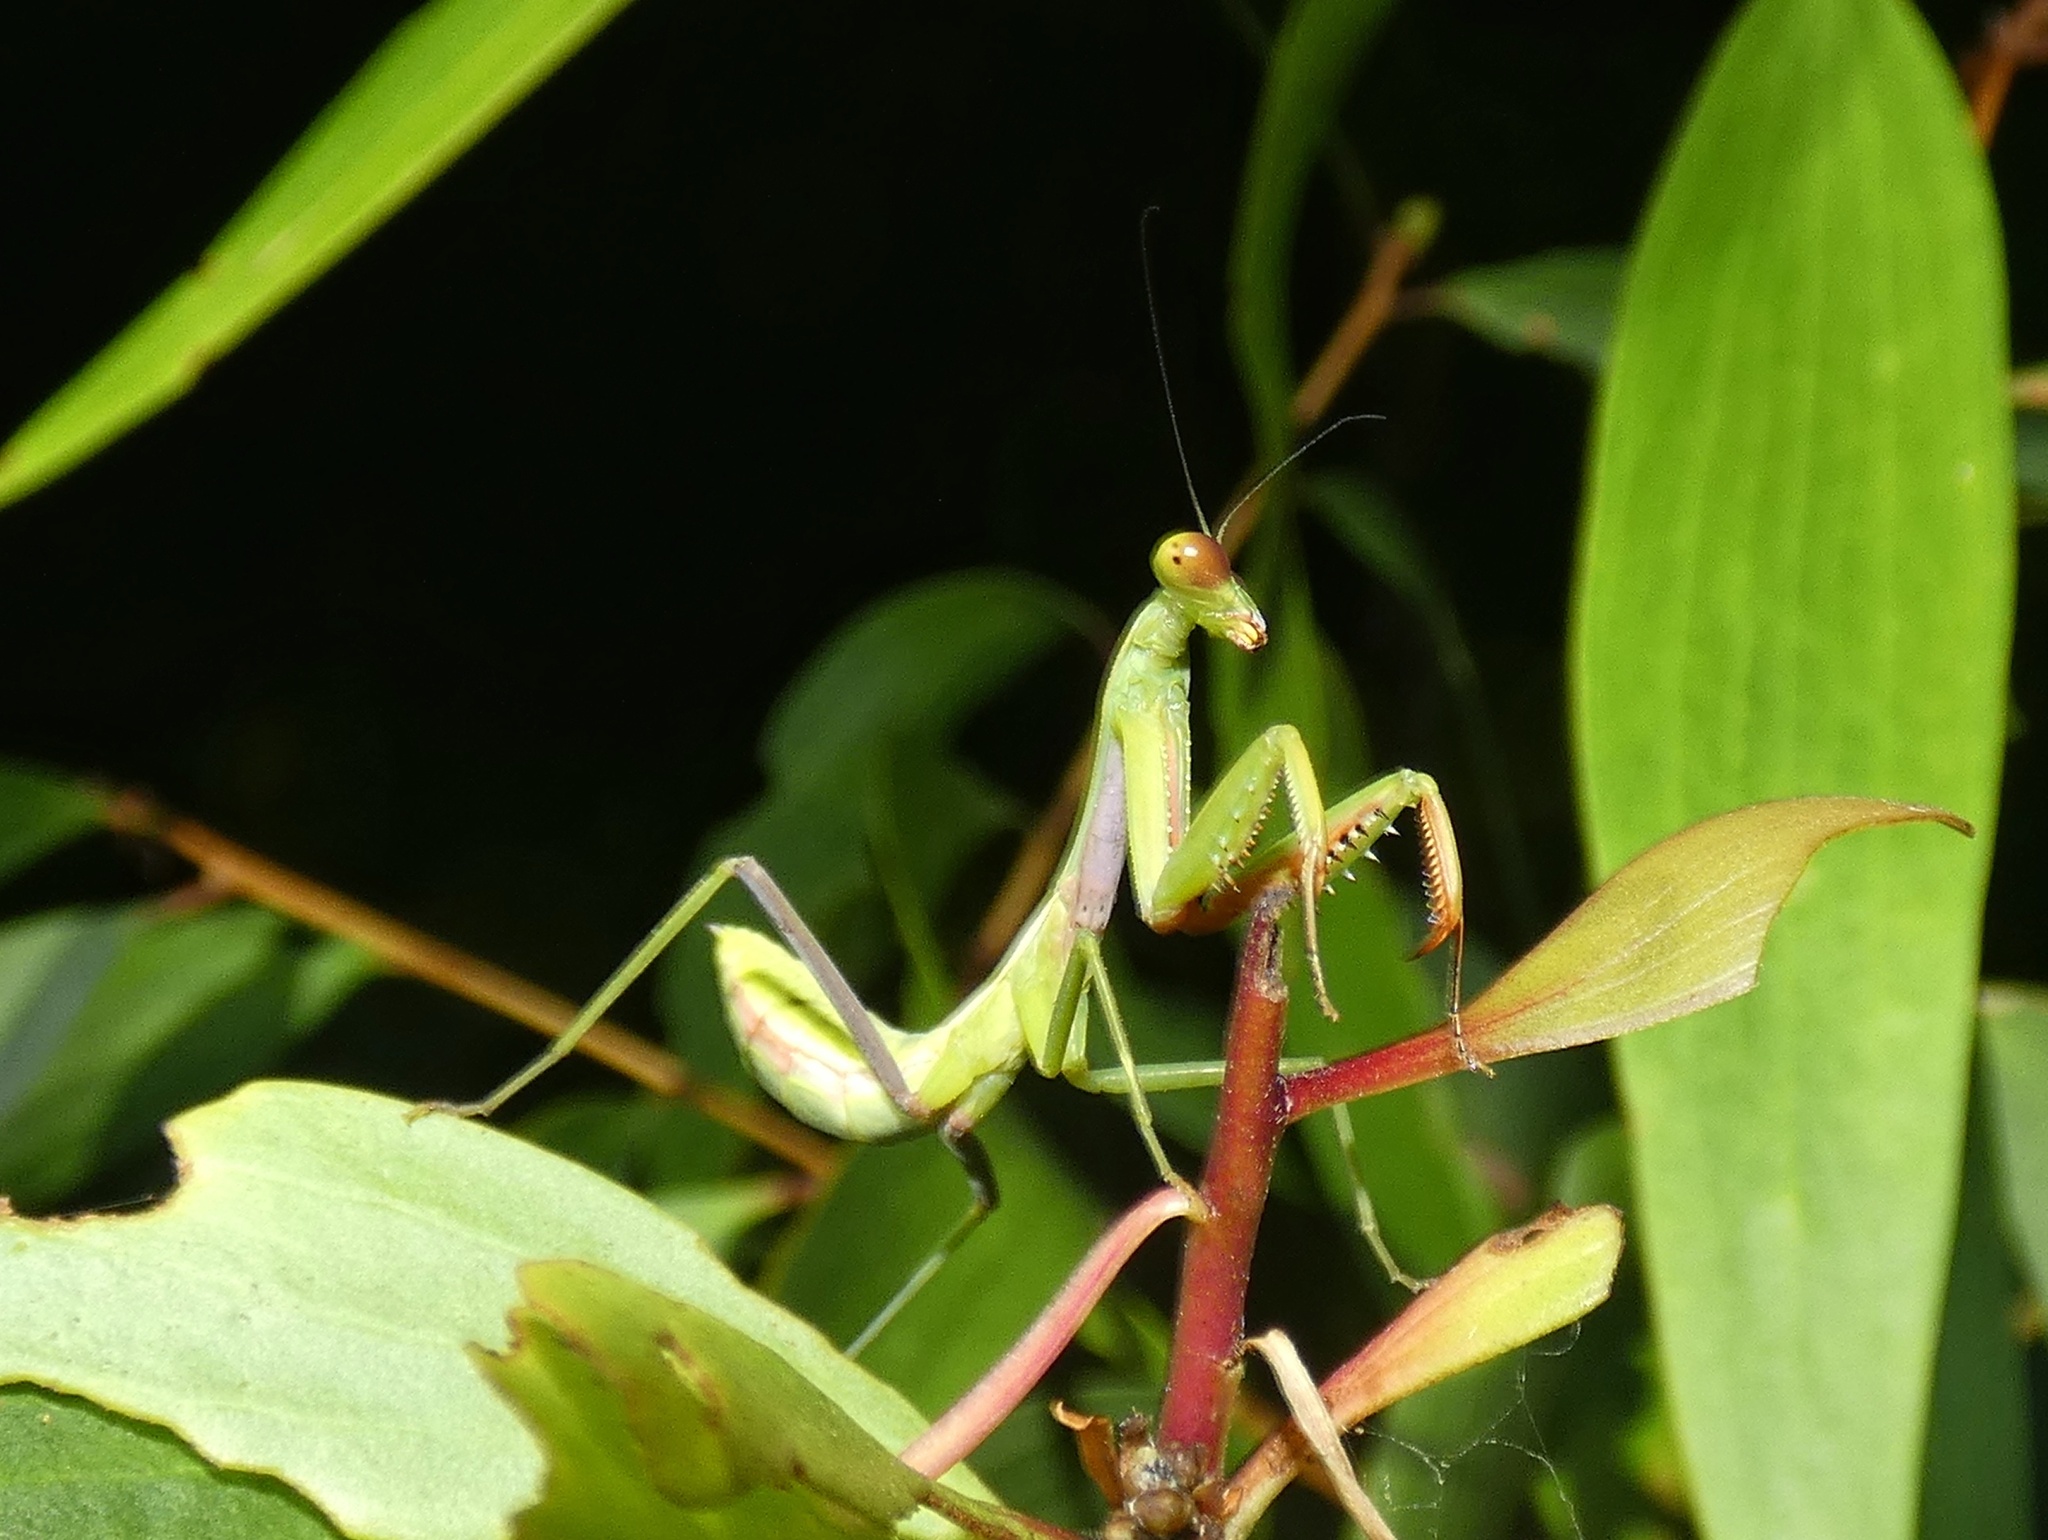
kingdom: Animalia
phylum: Arthropoda
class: Insecta
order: Mantodea
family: Mantidae
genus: Hierodula
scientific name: Hierodula majuscula
